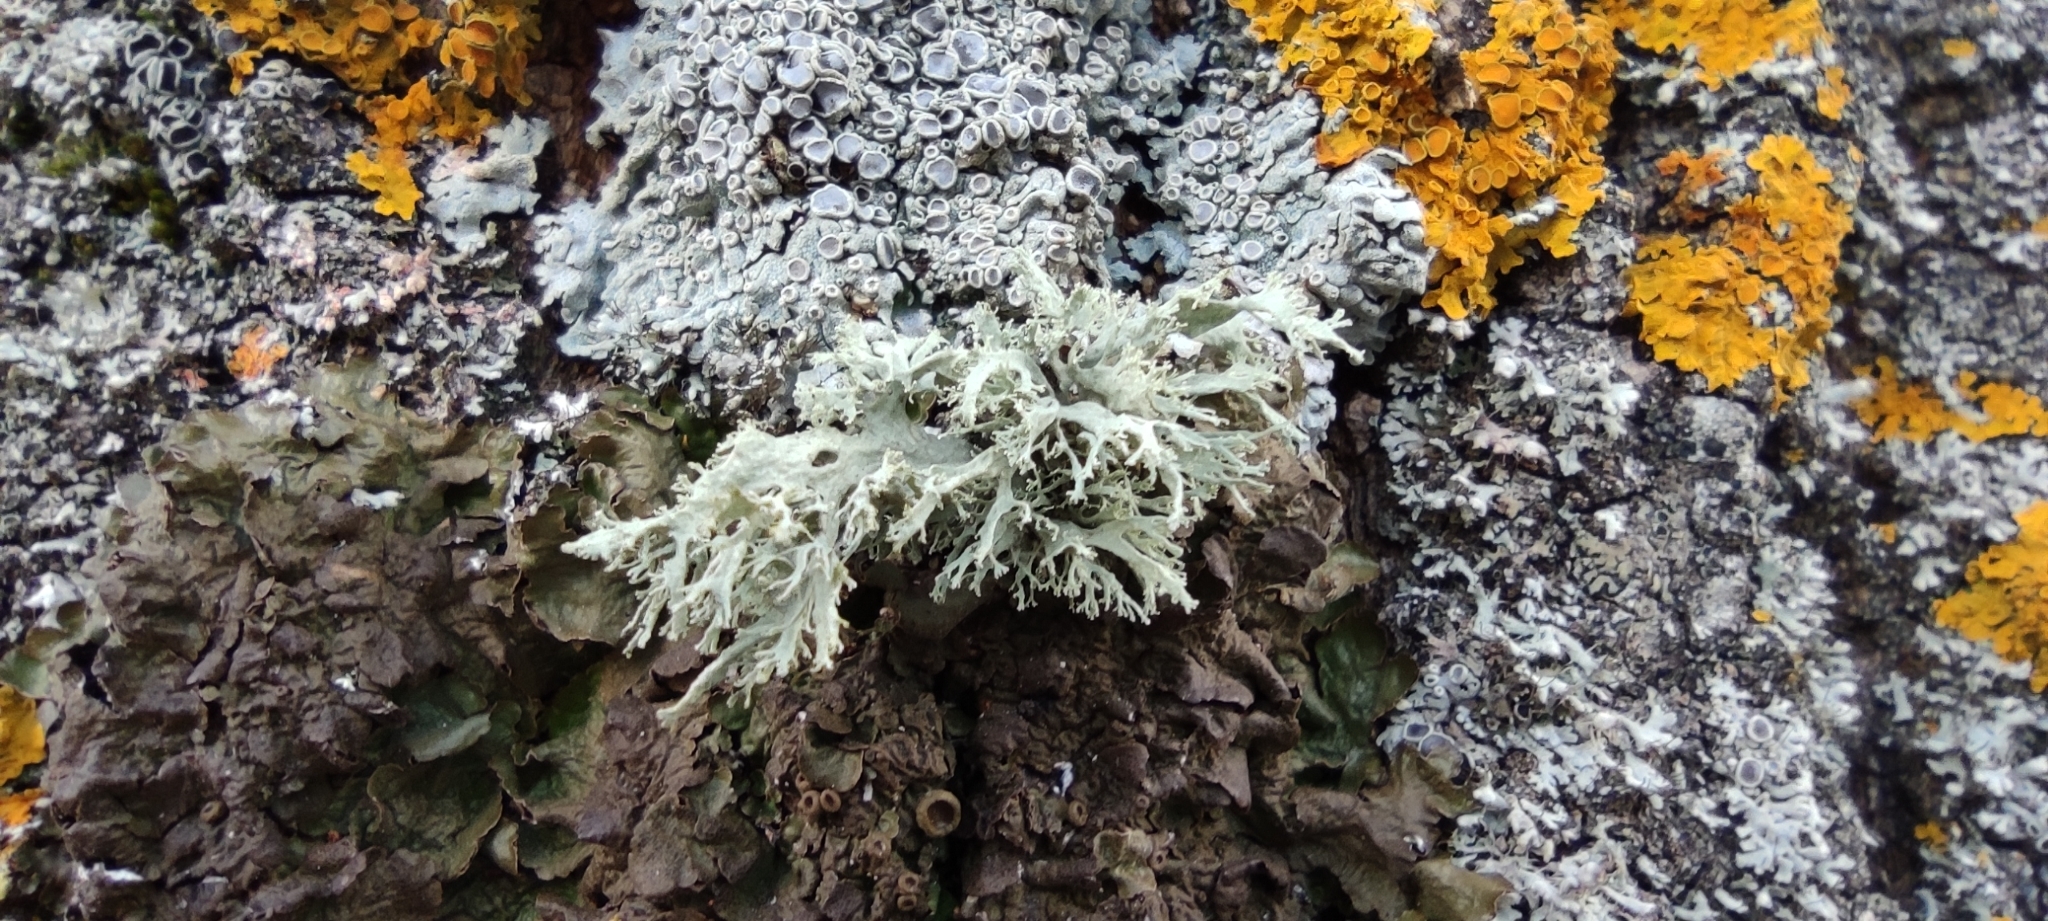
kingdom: Fungi
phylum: Ascomycota
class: Lecanoromycetes
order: Lecanorales
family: Parmeliaceae
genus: Evernia
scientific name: Evernia prunastri
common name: Oak moss
